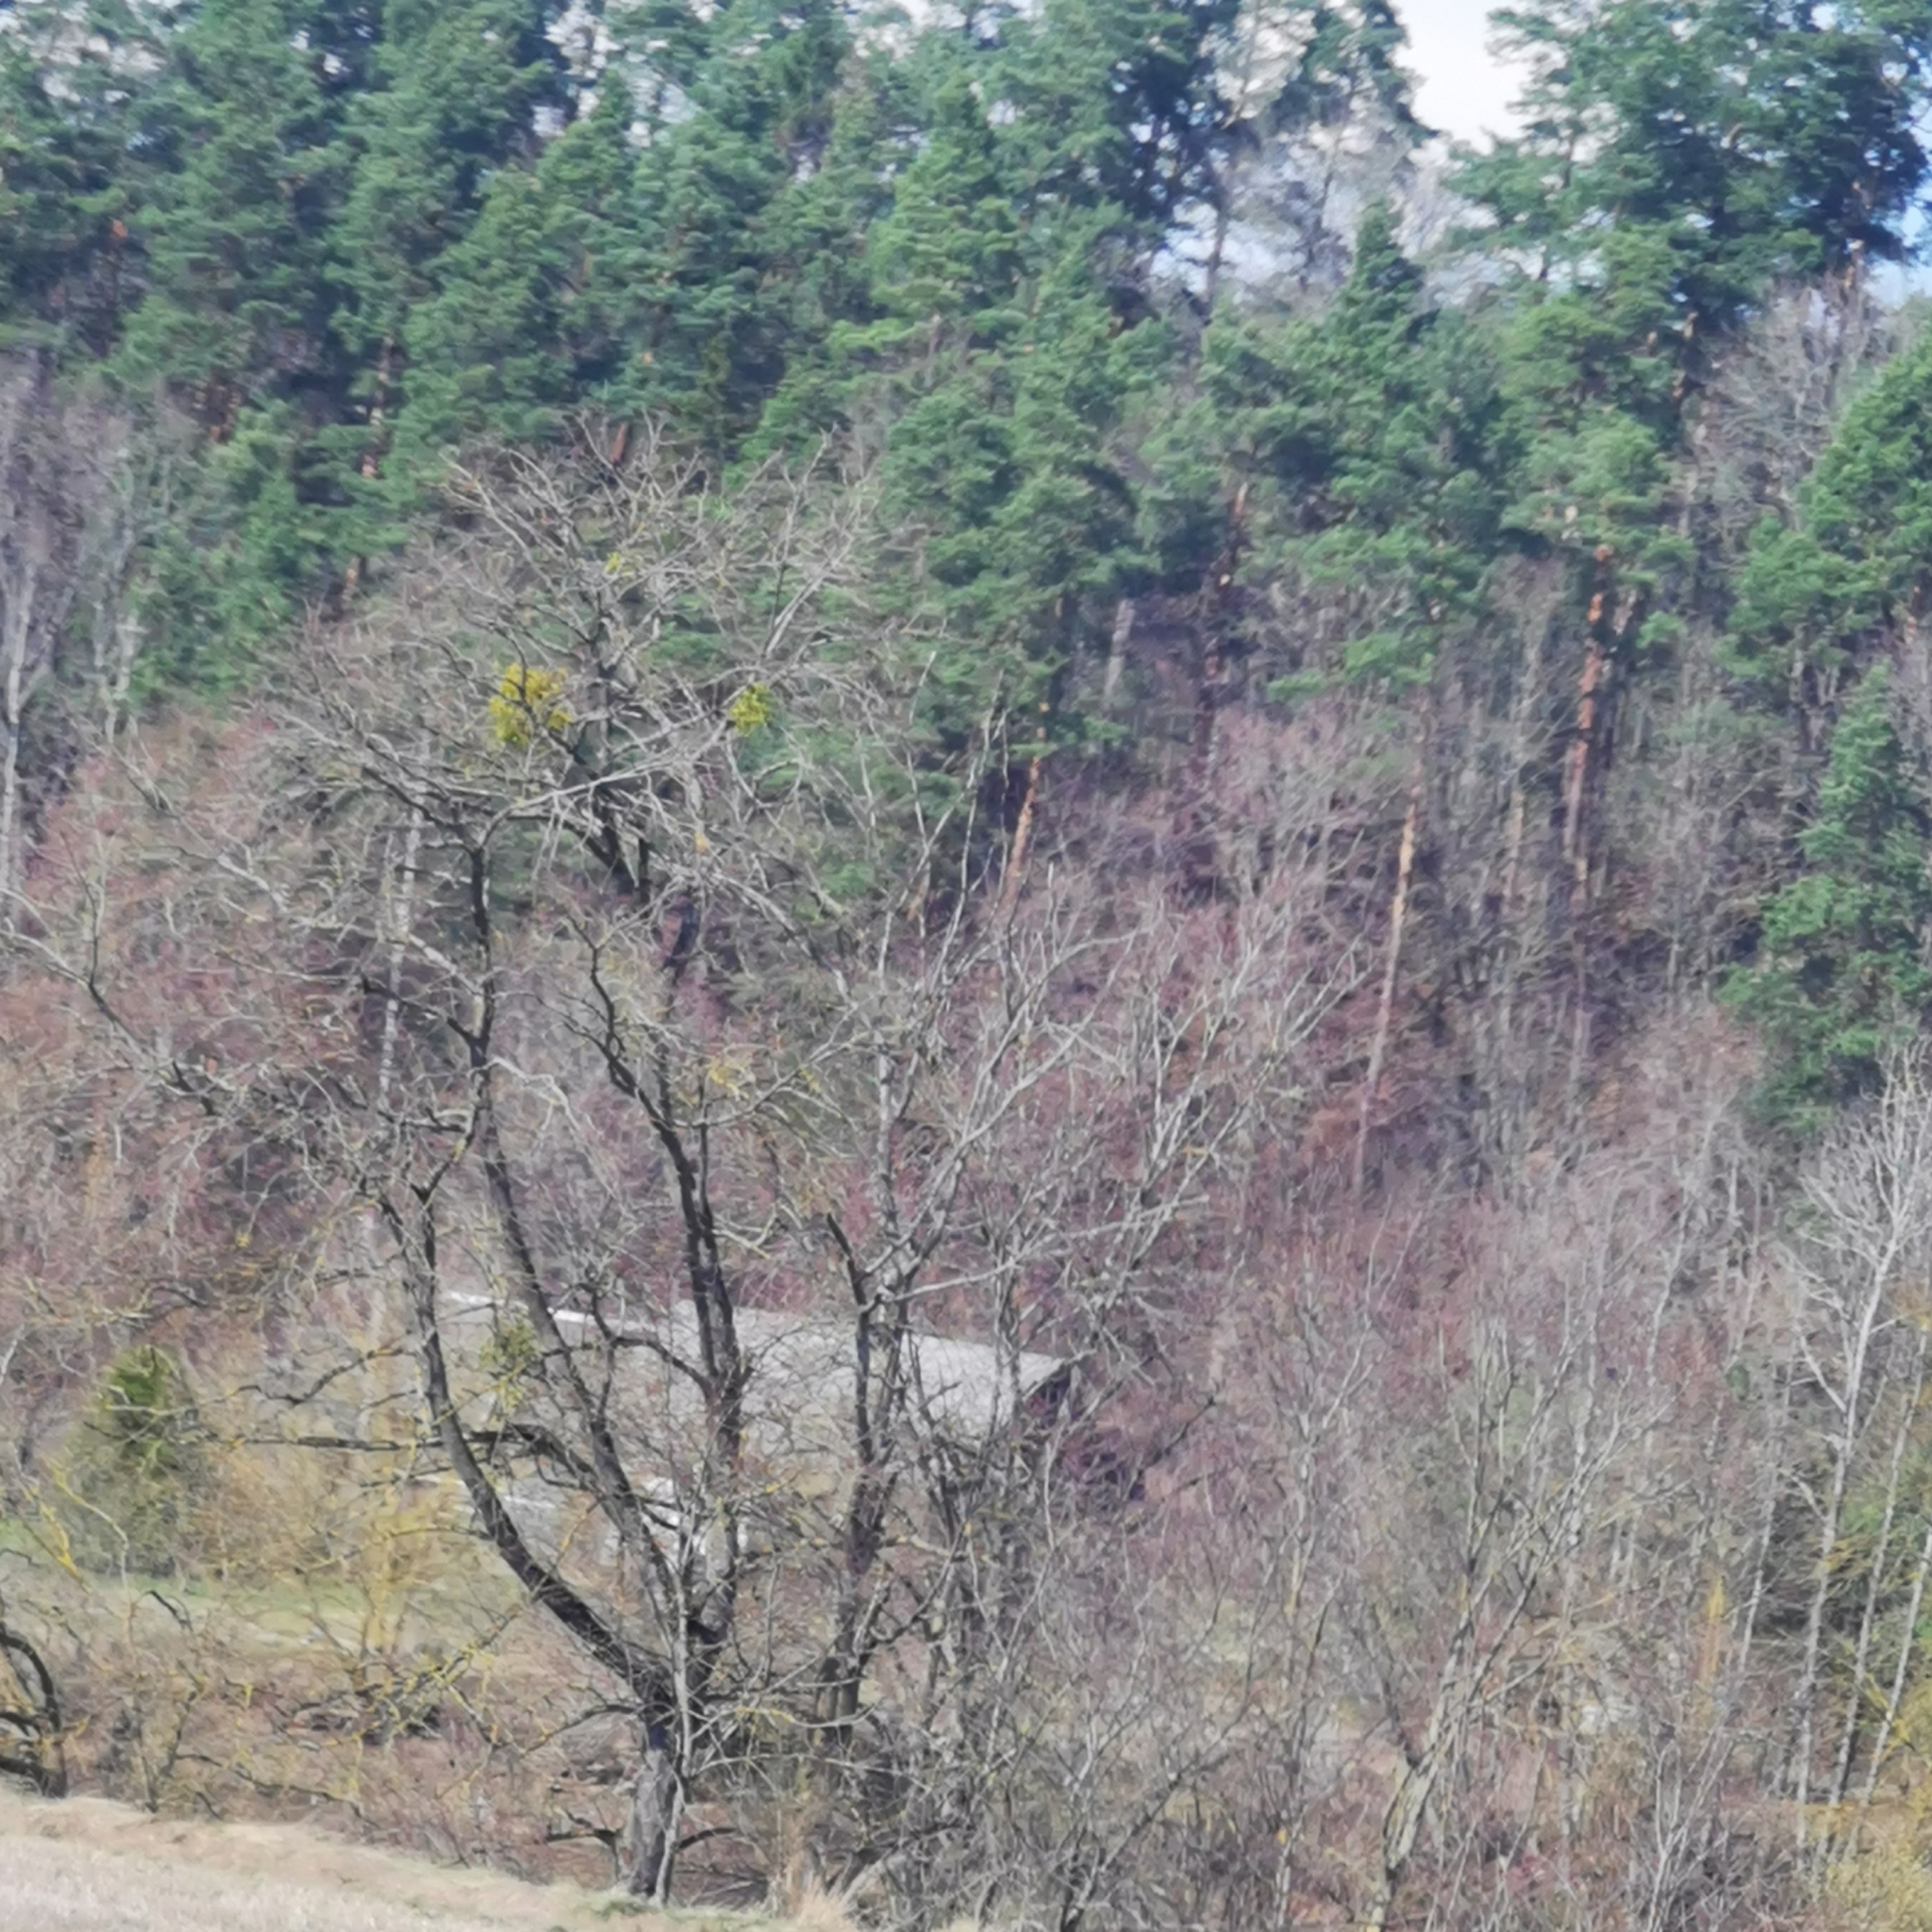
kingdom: Plantae
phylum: Tracheophyta
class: Magnoliopsida
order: Santalales
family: Viscaceae
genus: Viscum
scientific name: Viscum album
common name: Mistletoe
